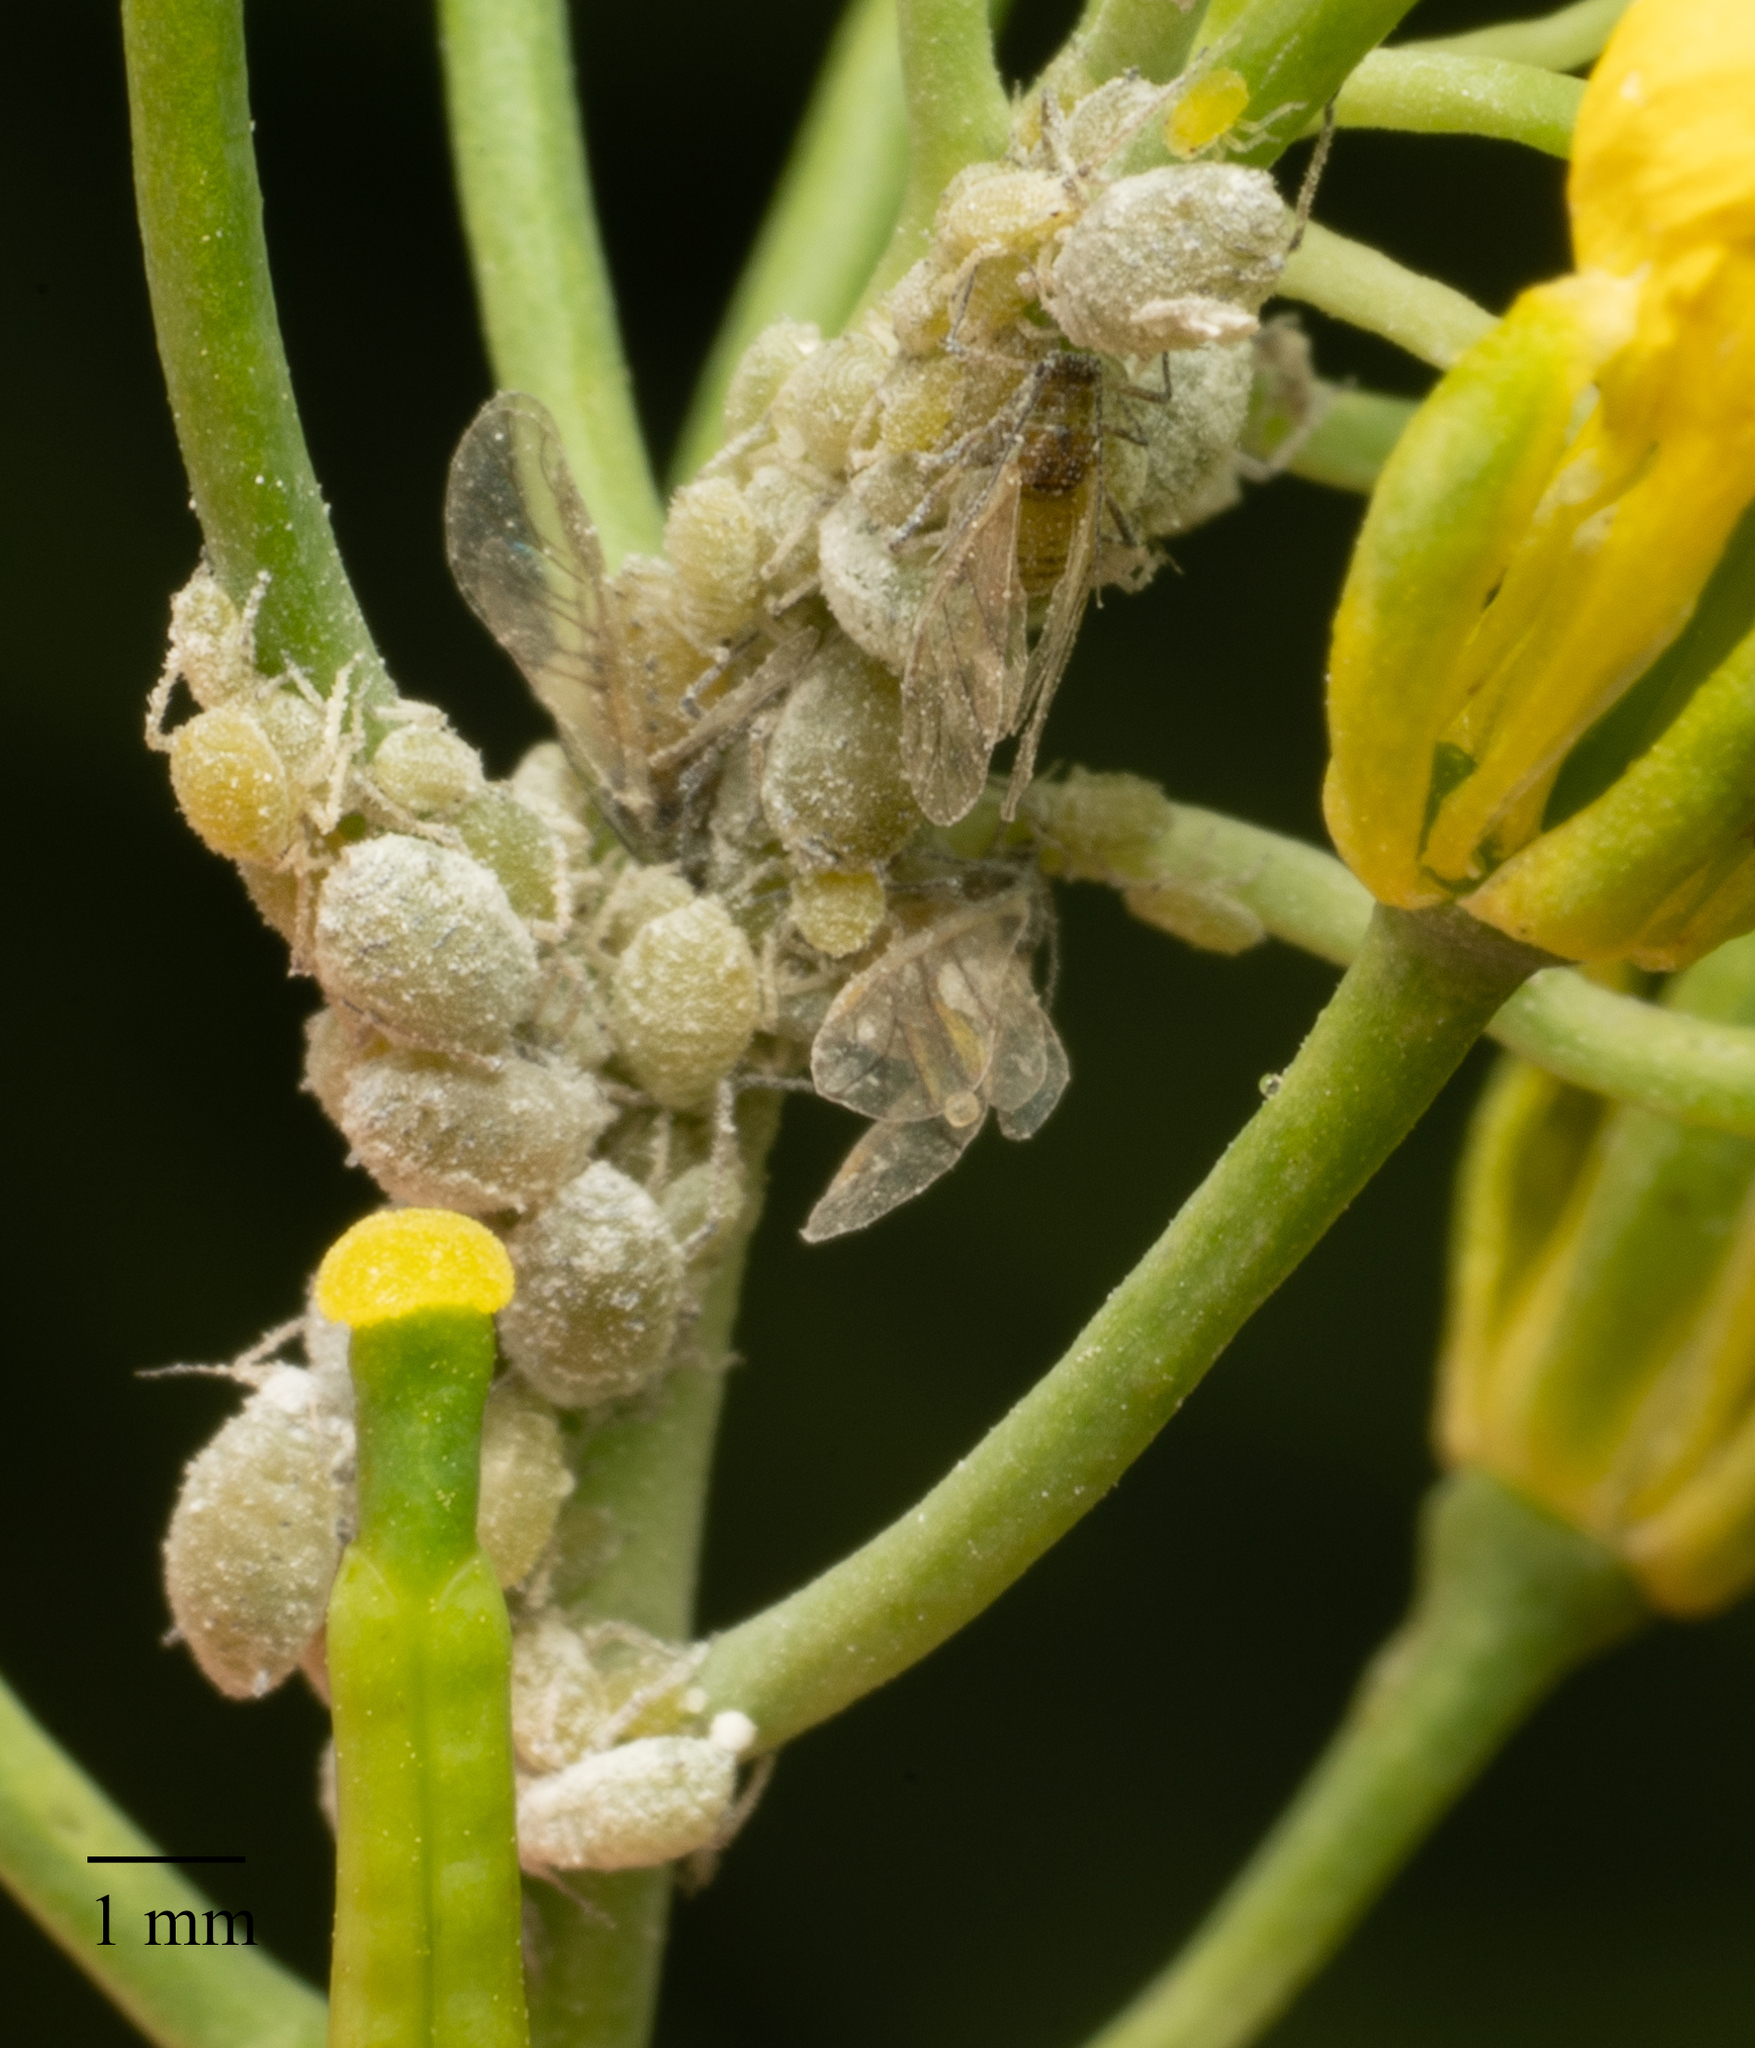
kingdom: Animalia
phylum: Arthropoda
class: Insecta
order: Hemiptera
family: Aphididae
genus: Brevicoryne
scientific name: Brevicoryne brassicae
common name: Cabbage aphid
